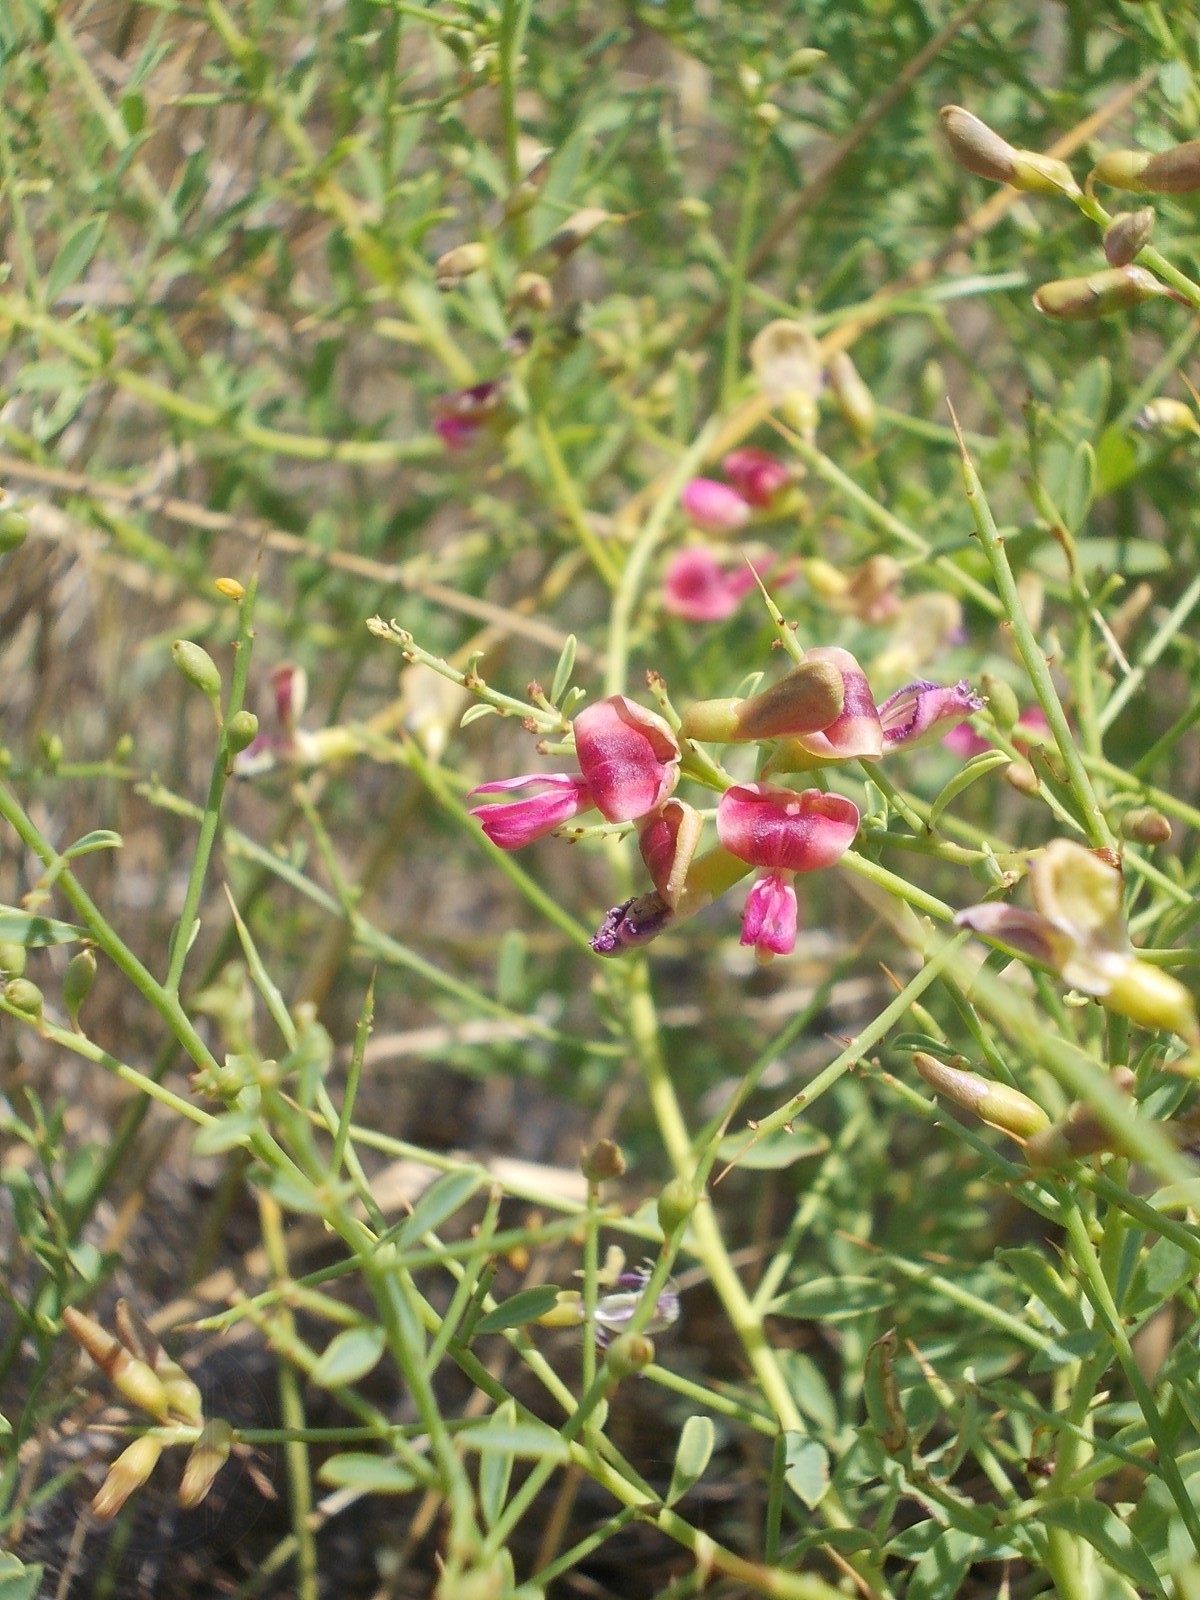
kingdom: Plantae
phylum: Tracheophyta
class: Magnoliopsida
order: Fabales
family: Fabaceae
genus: Alhagi
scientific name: Alhagi pseudalhagi
